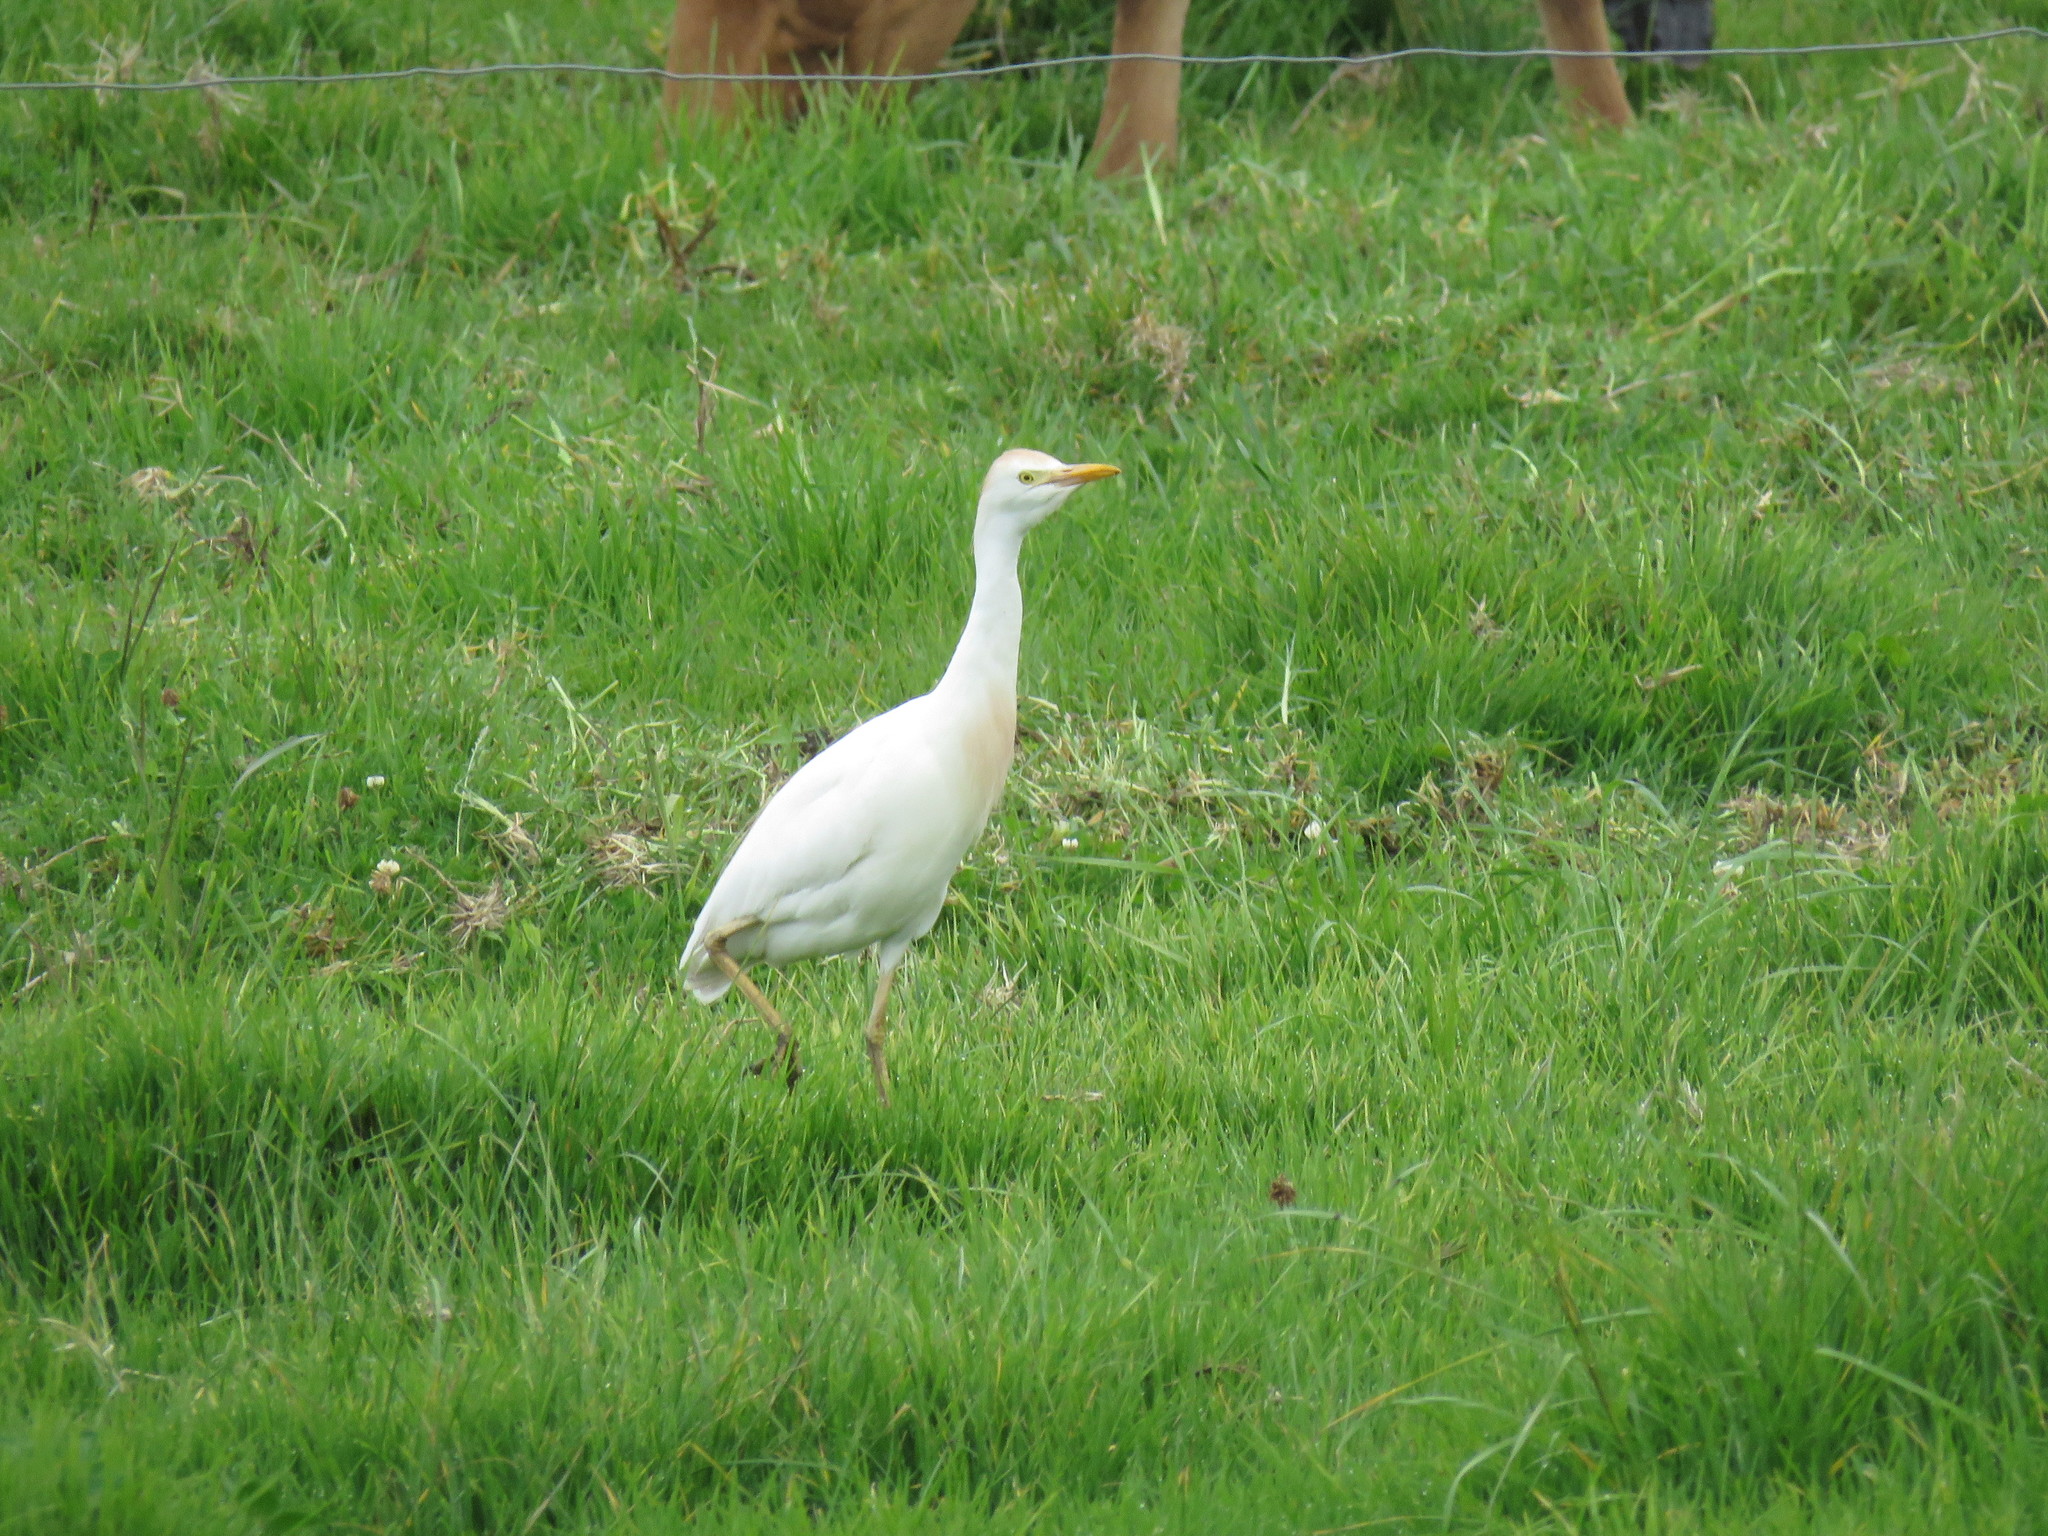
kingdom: Animalia
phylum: Chordata
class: Aves
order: Pelecaniformes
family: Ardeidae
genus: Bubulcus
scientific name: Bubulcus ibis
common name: Cattle egret
